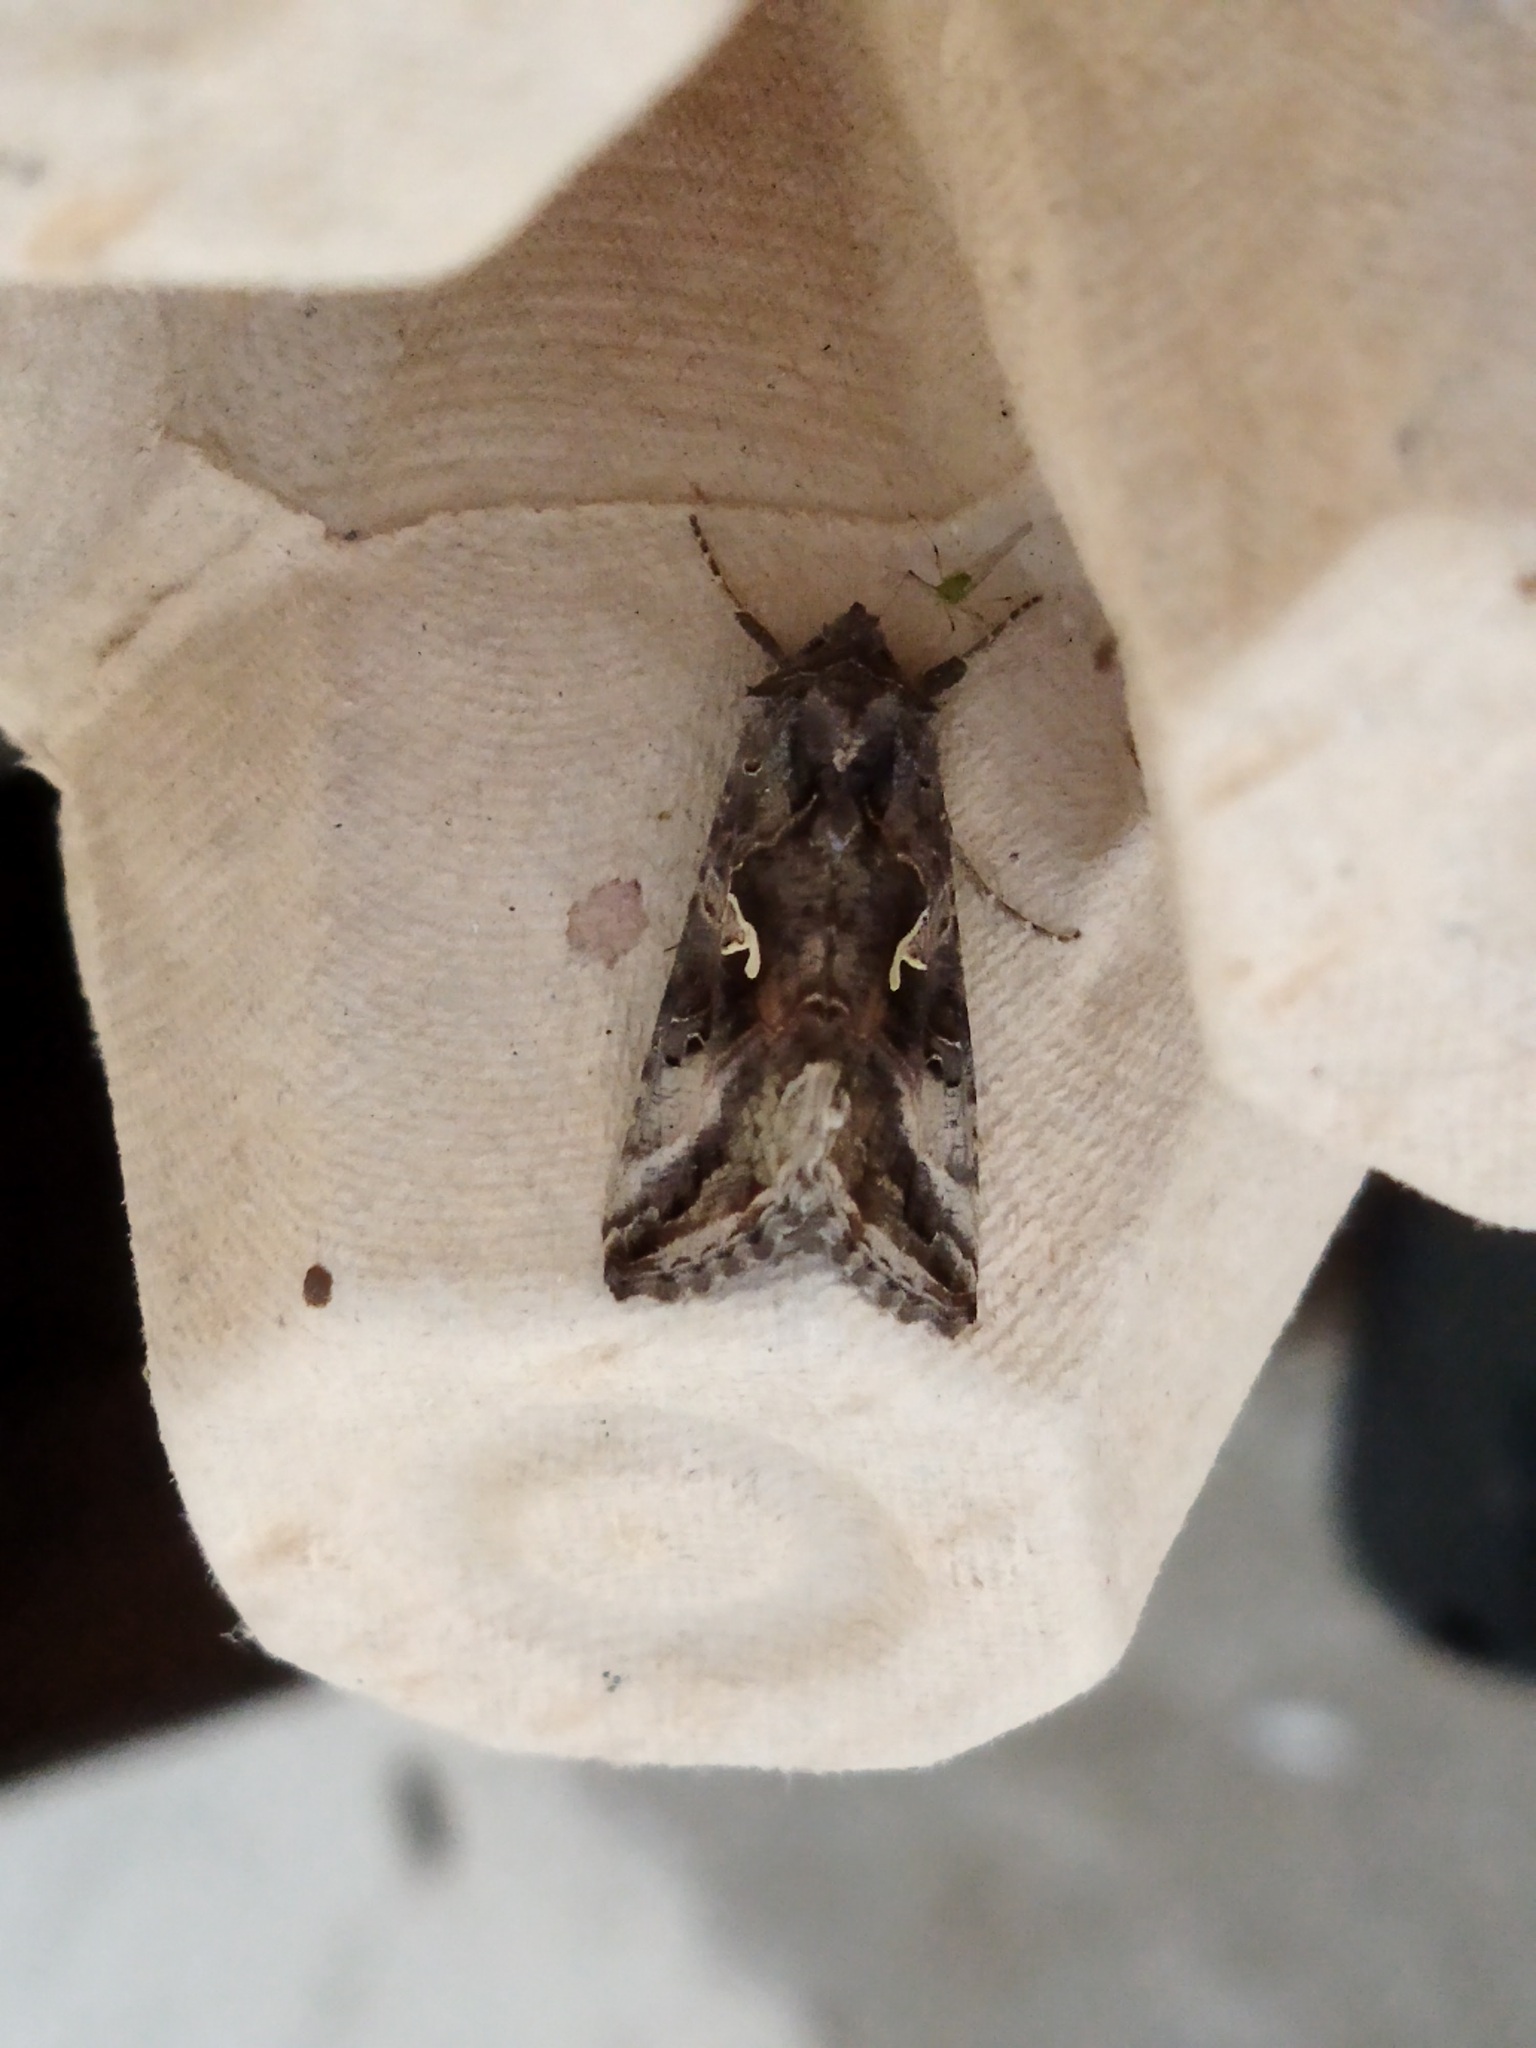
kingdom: Animalia
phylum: Arthropoda
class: Insecta
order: Lepidoptera
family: Noctuidae
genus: Autographa
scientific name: Autographa gamma
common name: Silver y
